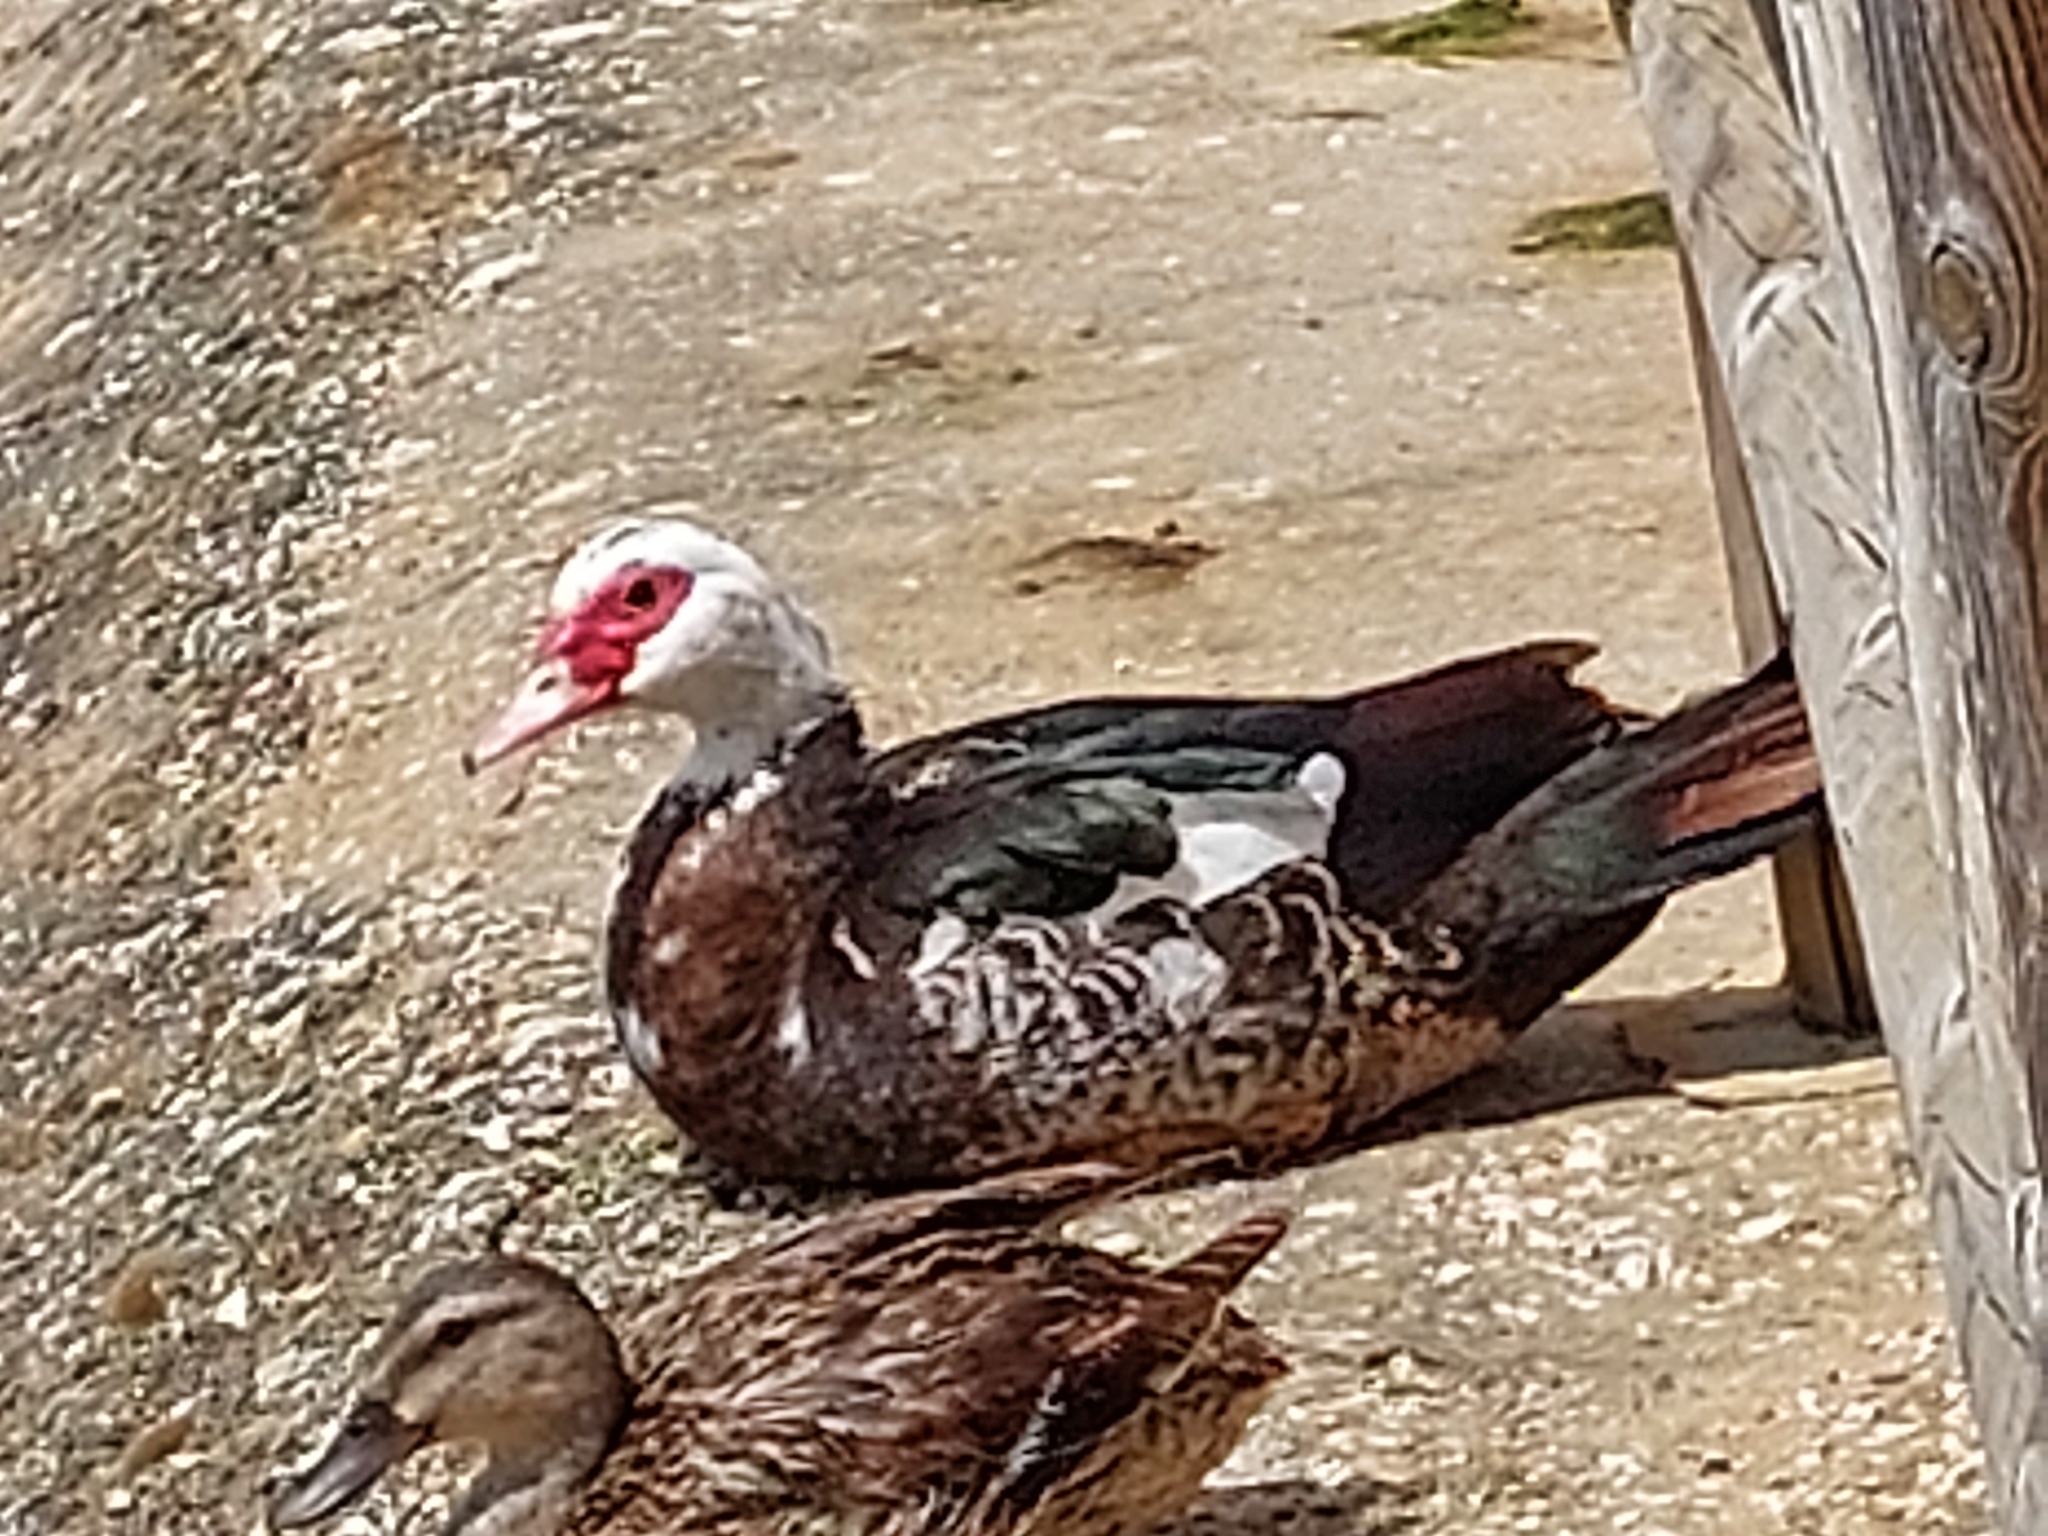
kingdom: Animalia
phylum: Chordata
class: Aves
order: Anseriformes
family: Anatidae
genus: Cairina
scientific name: Cairina moschata
